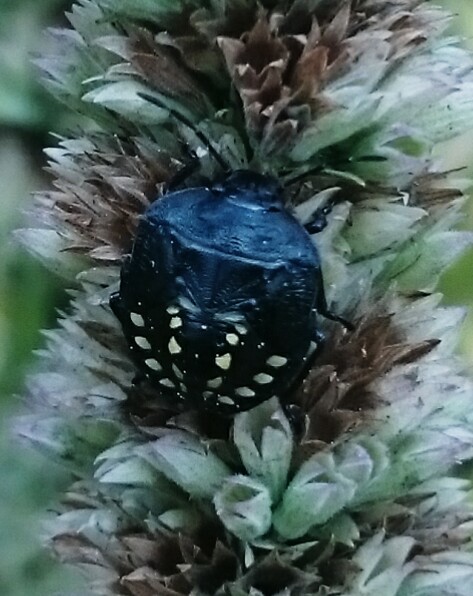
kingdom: Animalia
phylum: Arthropoda
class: Insecta
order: Hemiptera
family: Pentatomidae
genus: Nezara
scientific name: Nezara viridula
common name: Southern green stink bug
